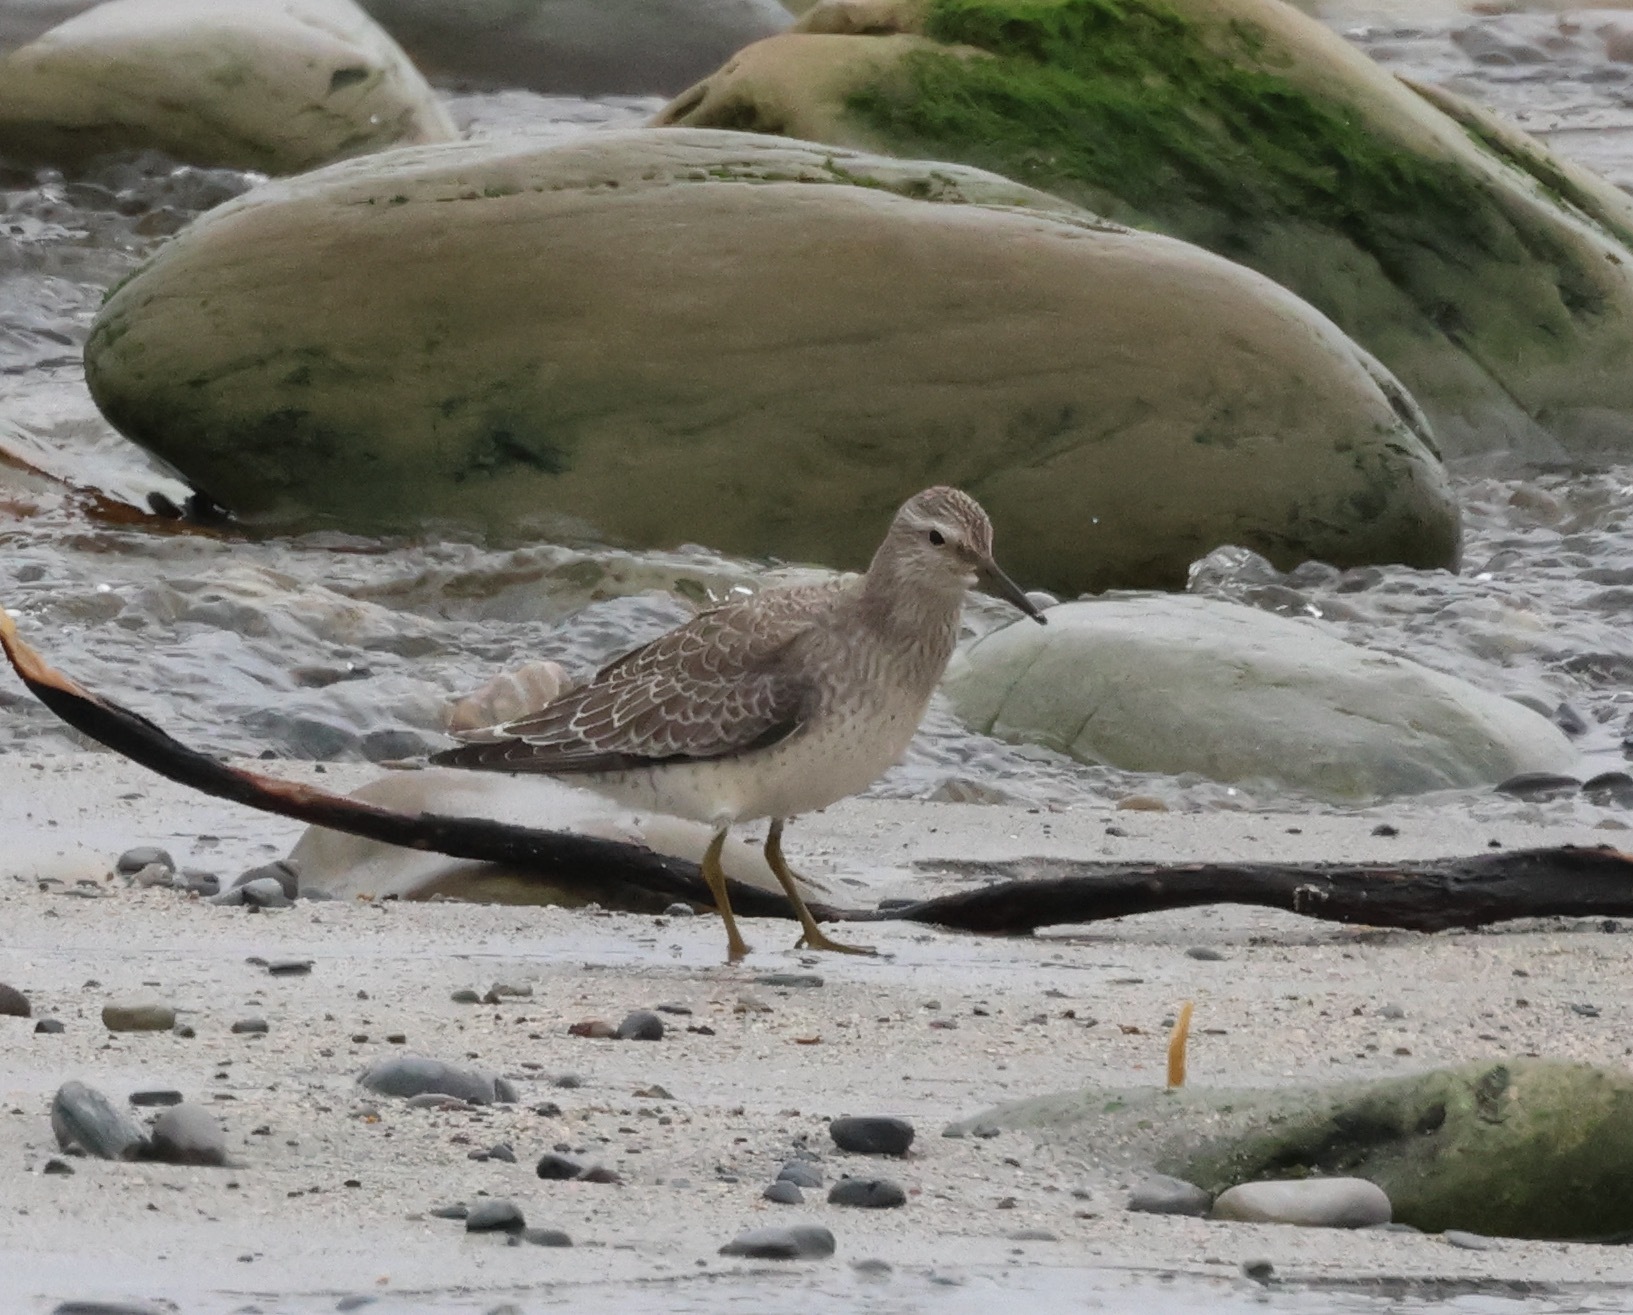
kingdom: Animalia
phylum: Chordata
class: Aves
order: Charadriiformes
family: Scolopacidae
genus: Calidris
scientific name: Calidris canutus
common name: Red knot
